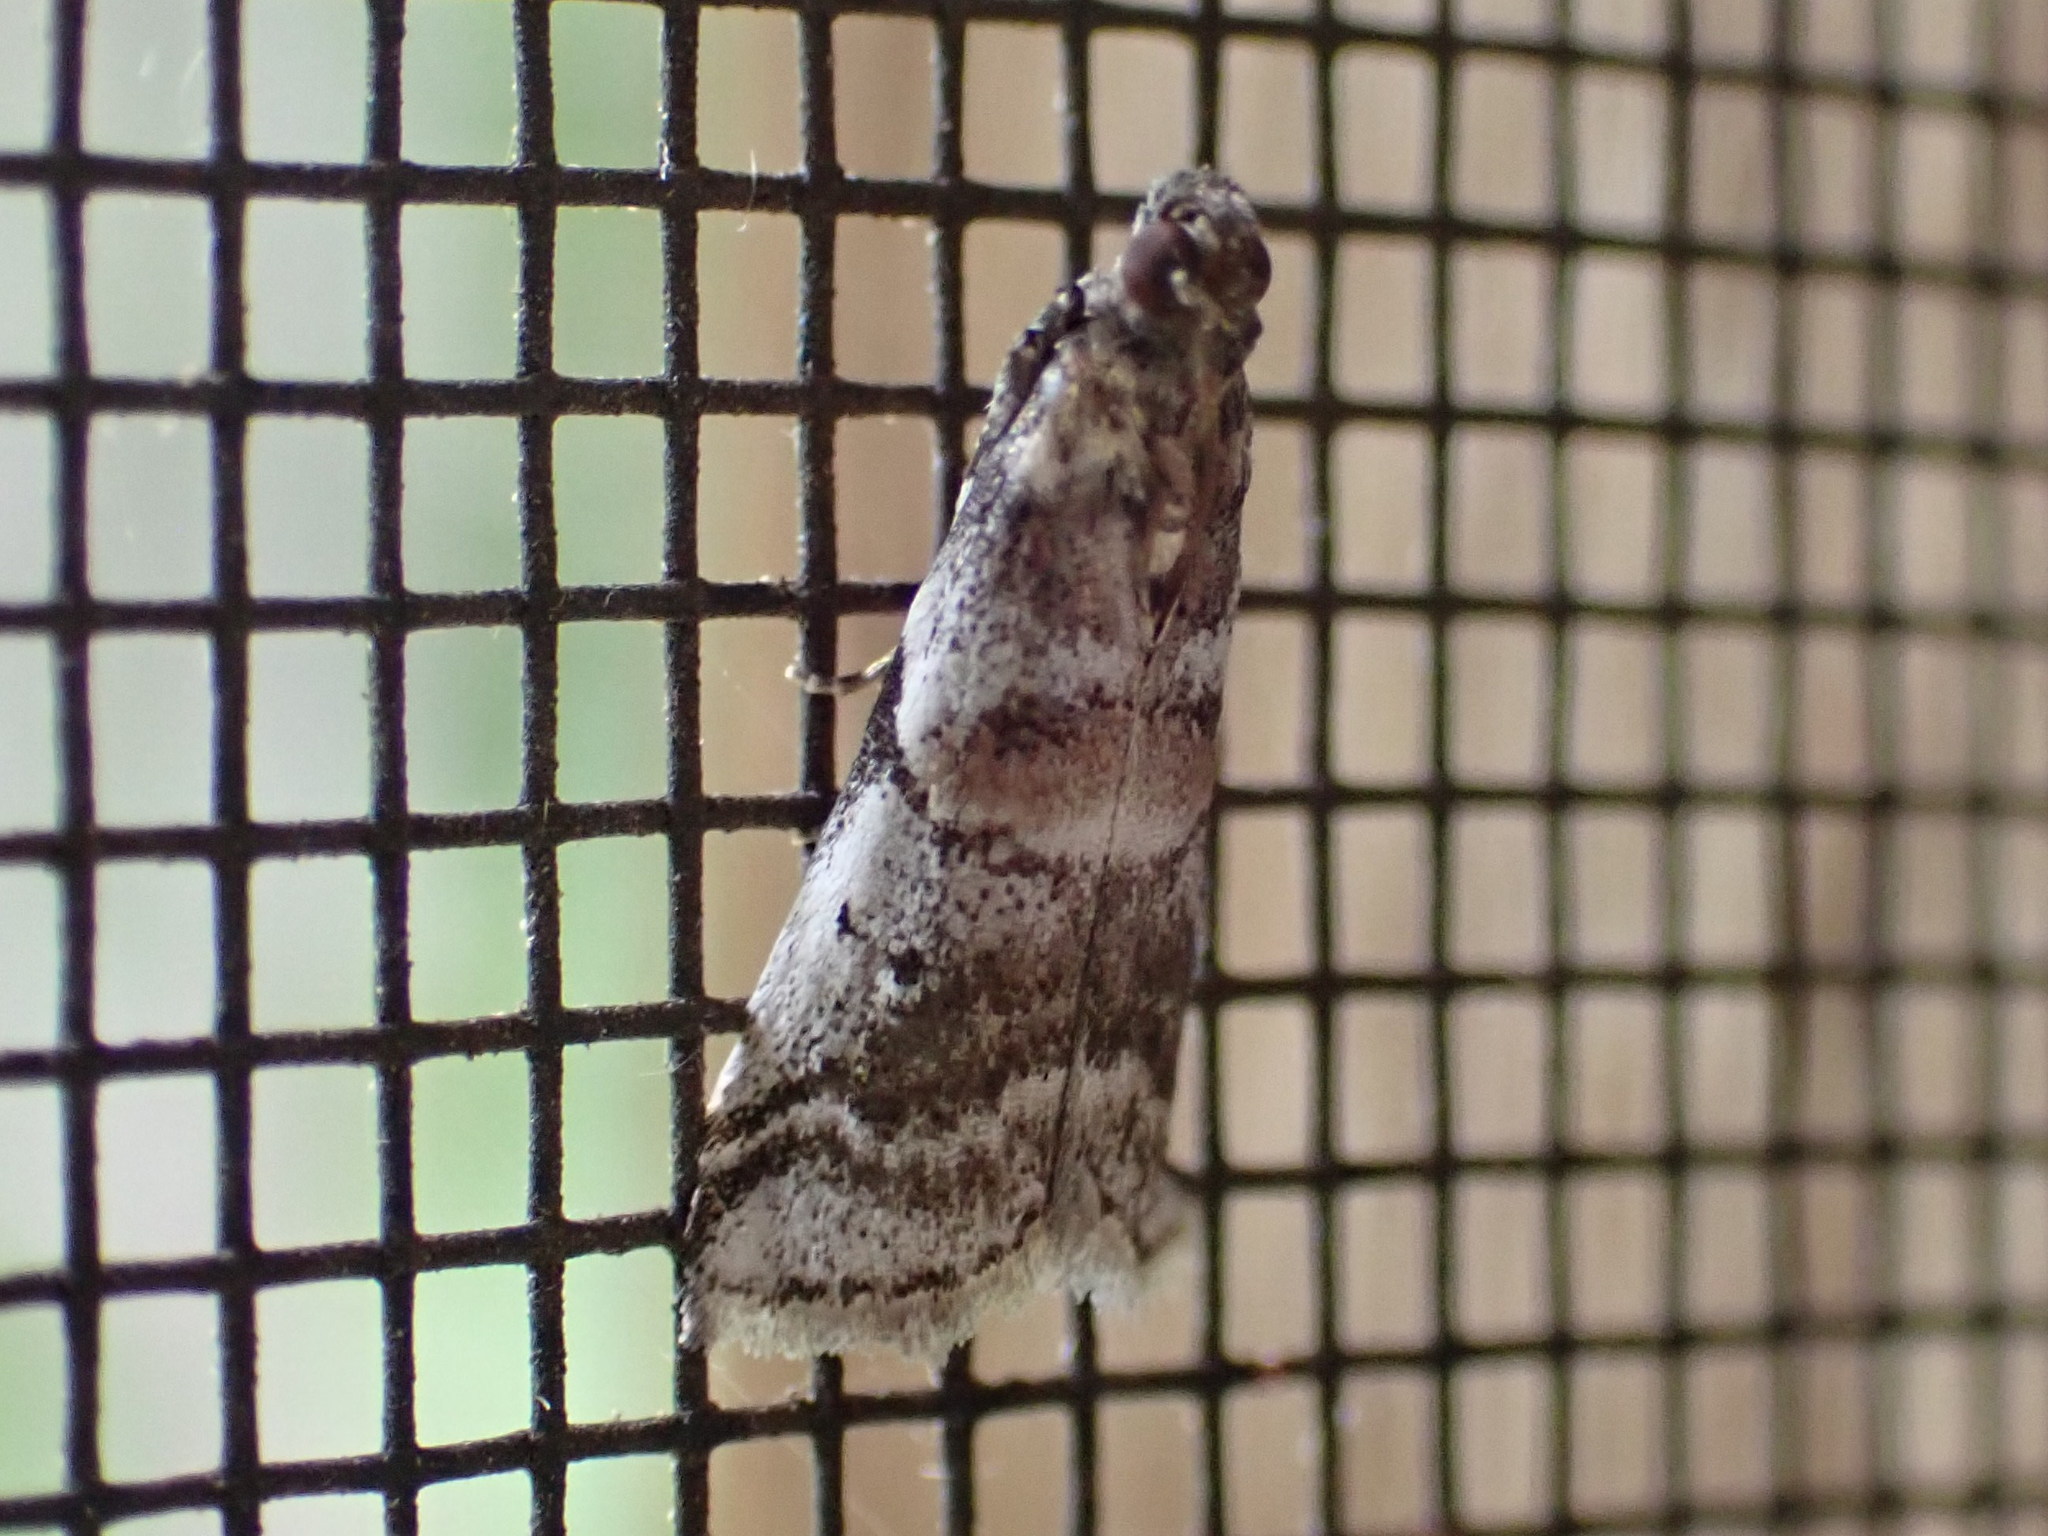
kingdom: Animalia
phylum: Arthropoda
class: Insecta
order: Lepidoptera
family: Pyralidae
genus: Acrobasis
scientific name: Acrobasis indigenella
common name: Leaf crumpler moth
